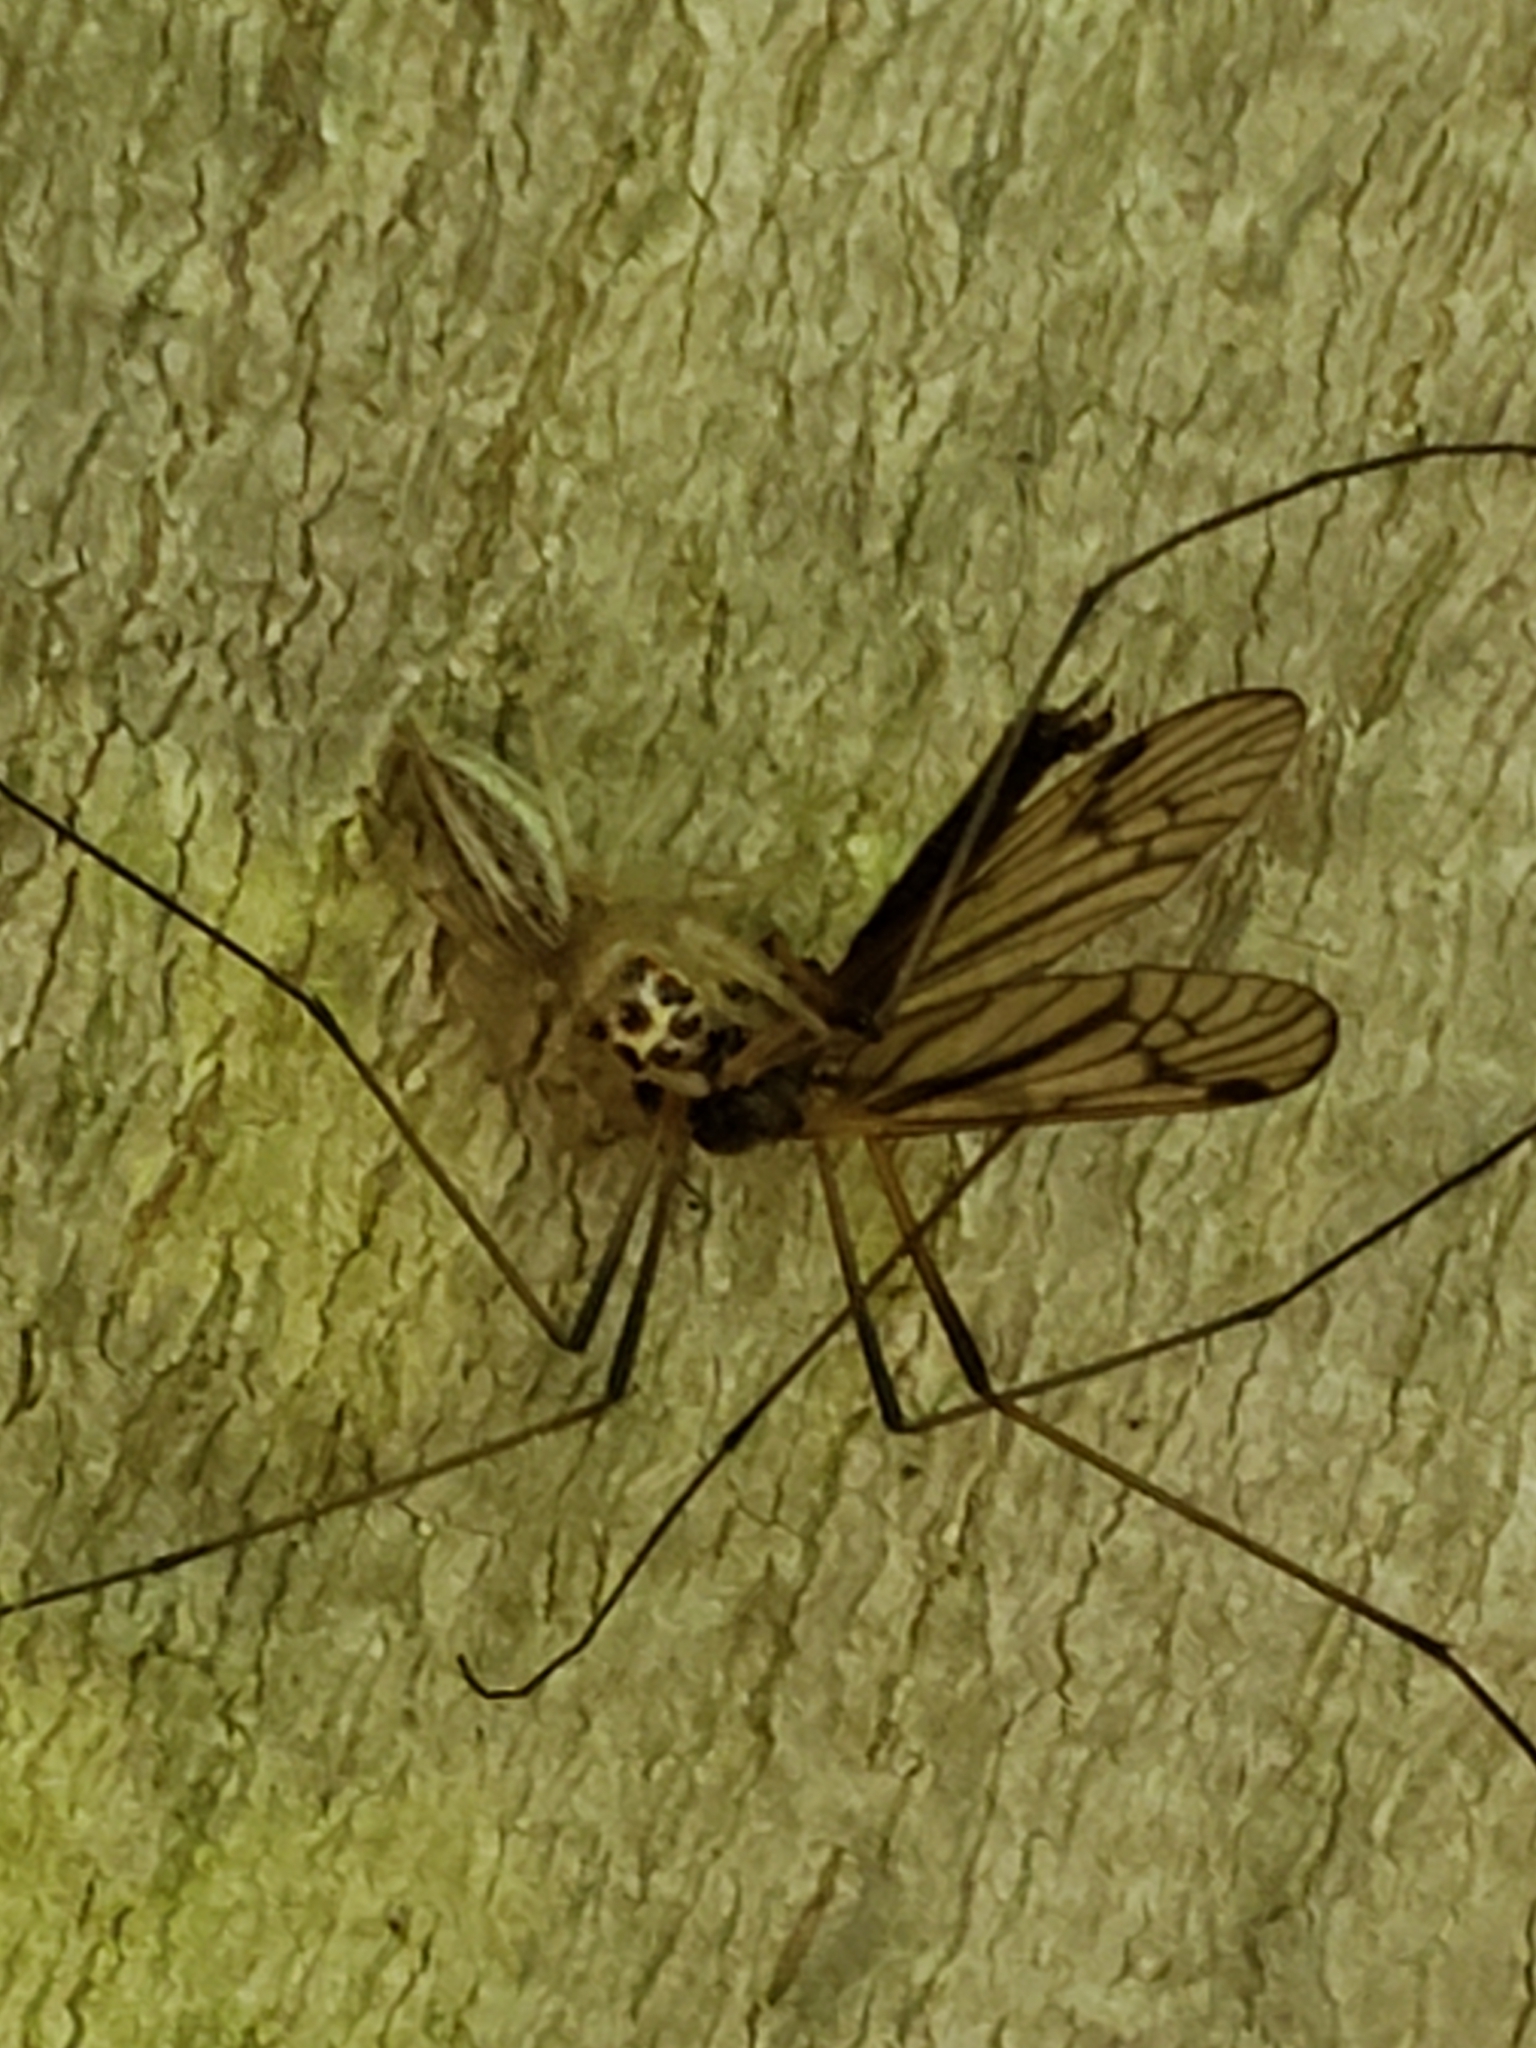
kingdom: Animalia
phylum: Arthropoda
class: Arachnida
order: Araneae
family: Salticidae
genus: Colonus
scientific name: Colonus sylvanus
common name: Jumping spiders
